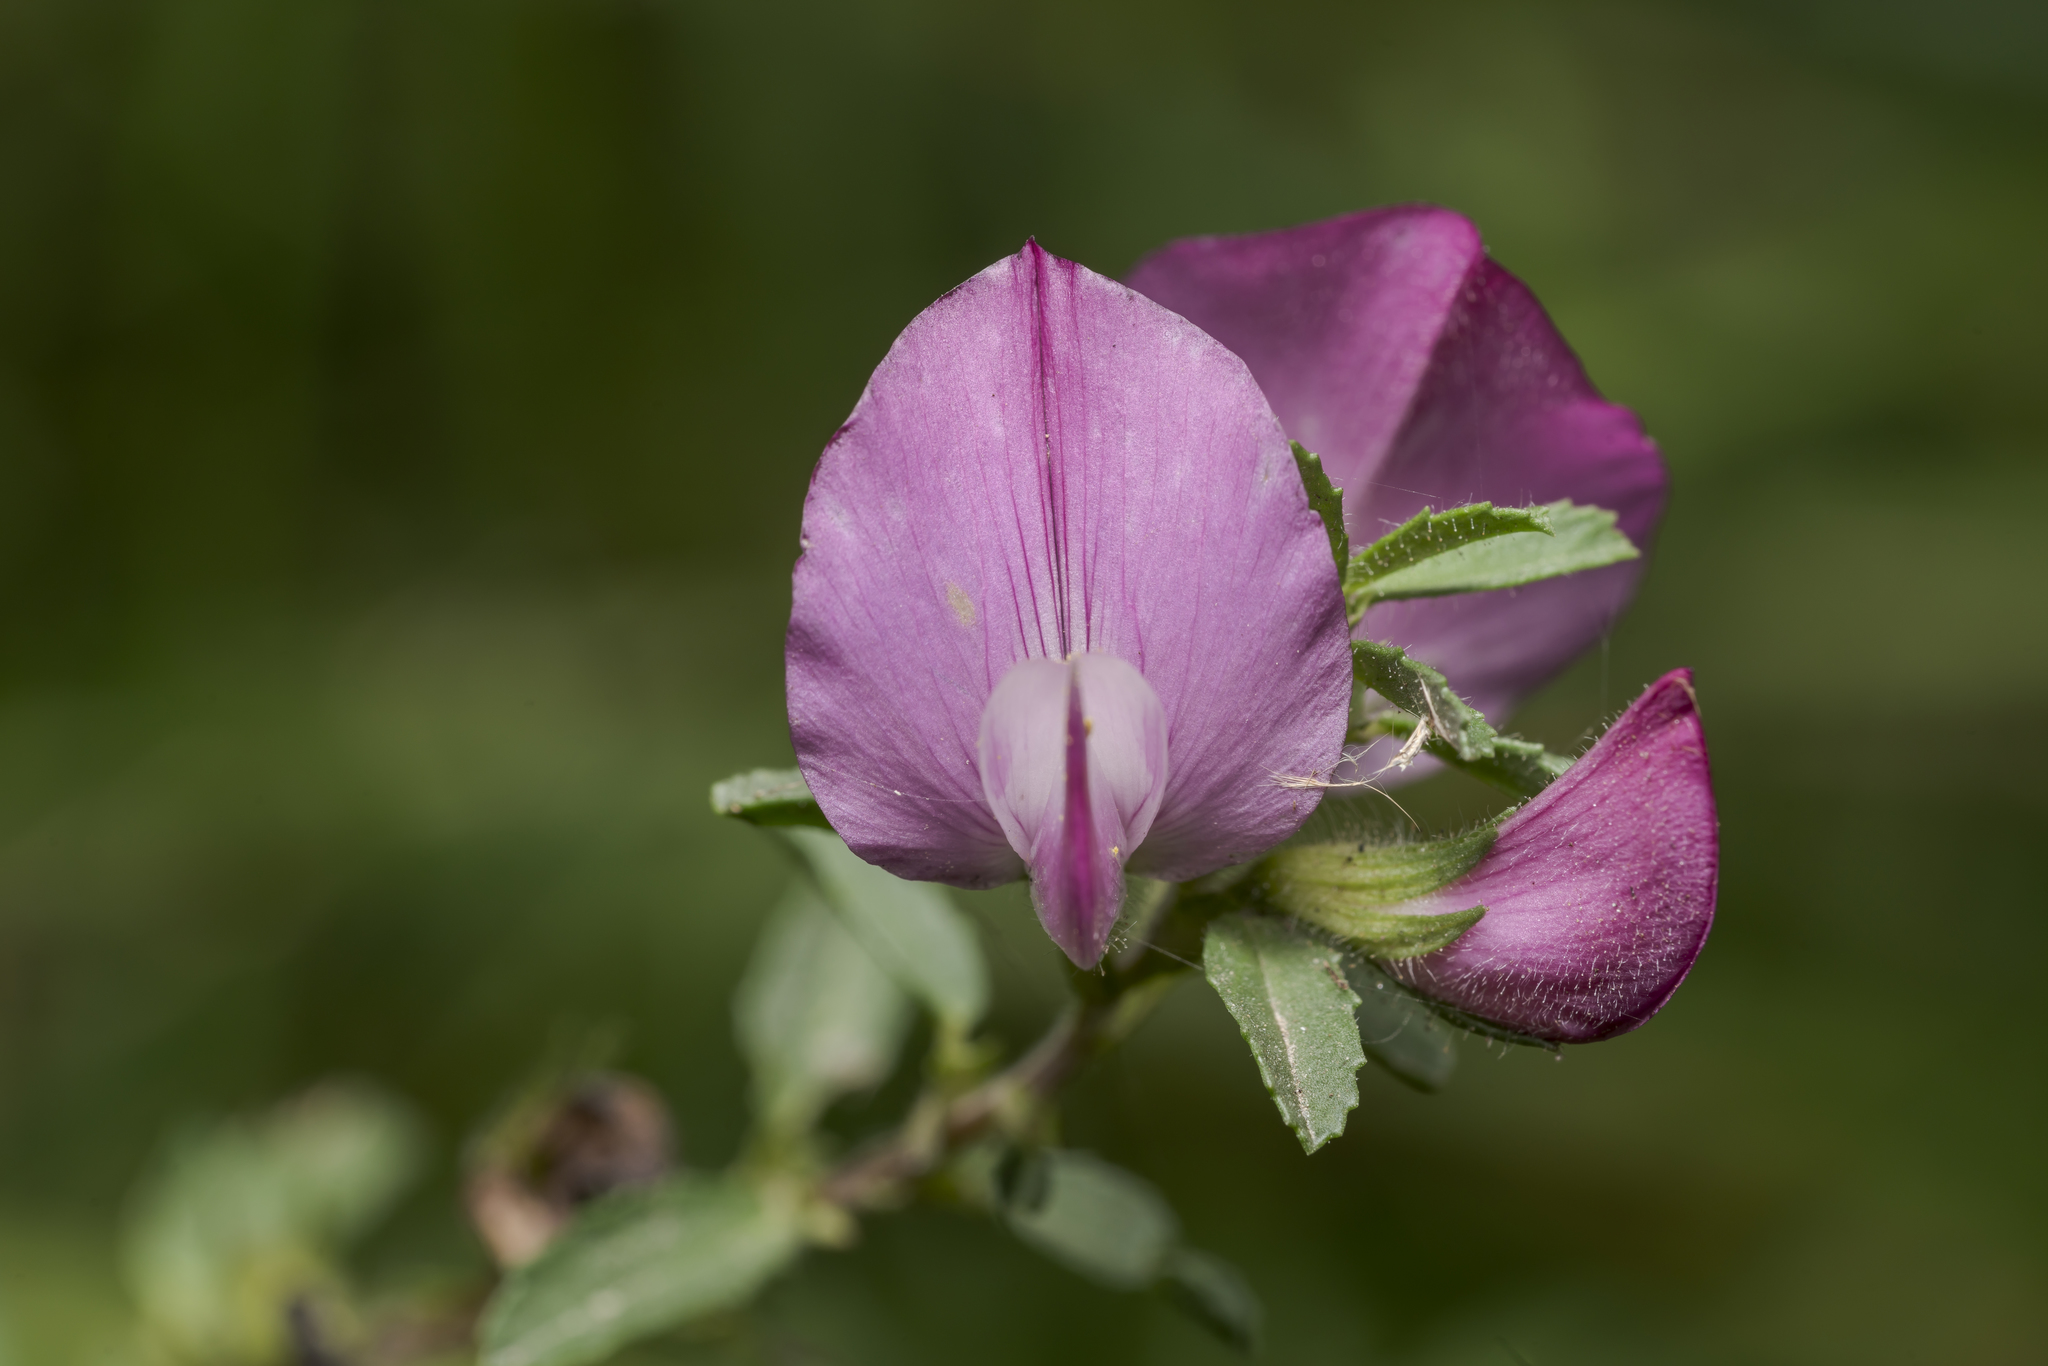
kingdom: Plantae
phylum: Tracheophyta
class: Magnoliopsida
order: Fabales
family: Fabaceae
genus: Ononis
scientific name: Ononis spinosa
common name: Spiny restharrow
